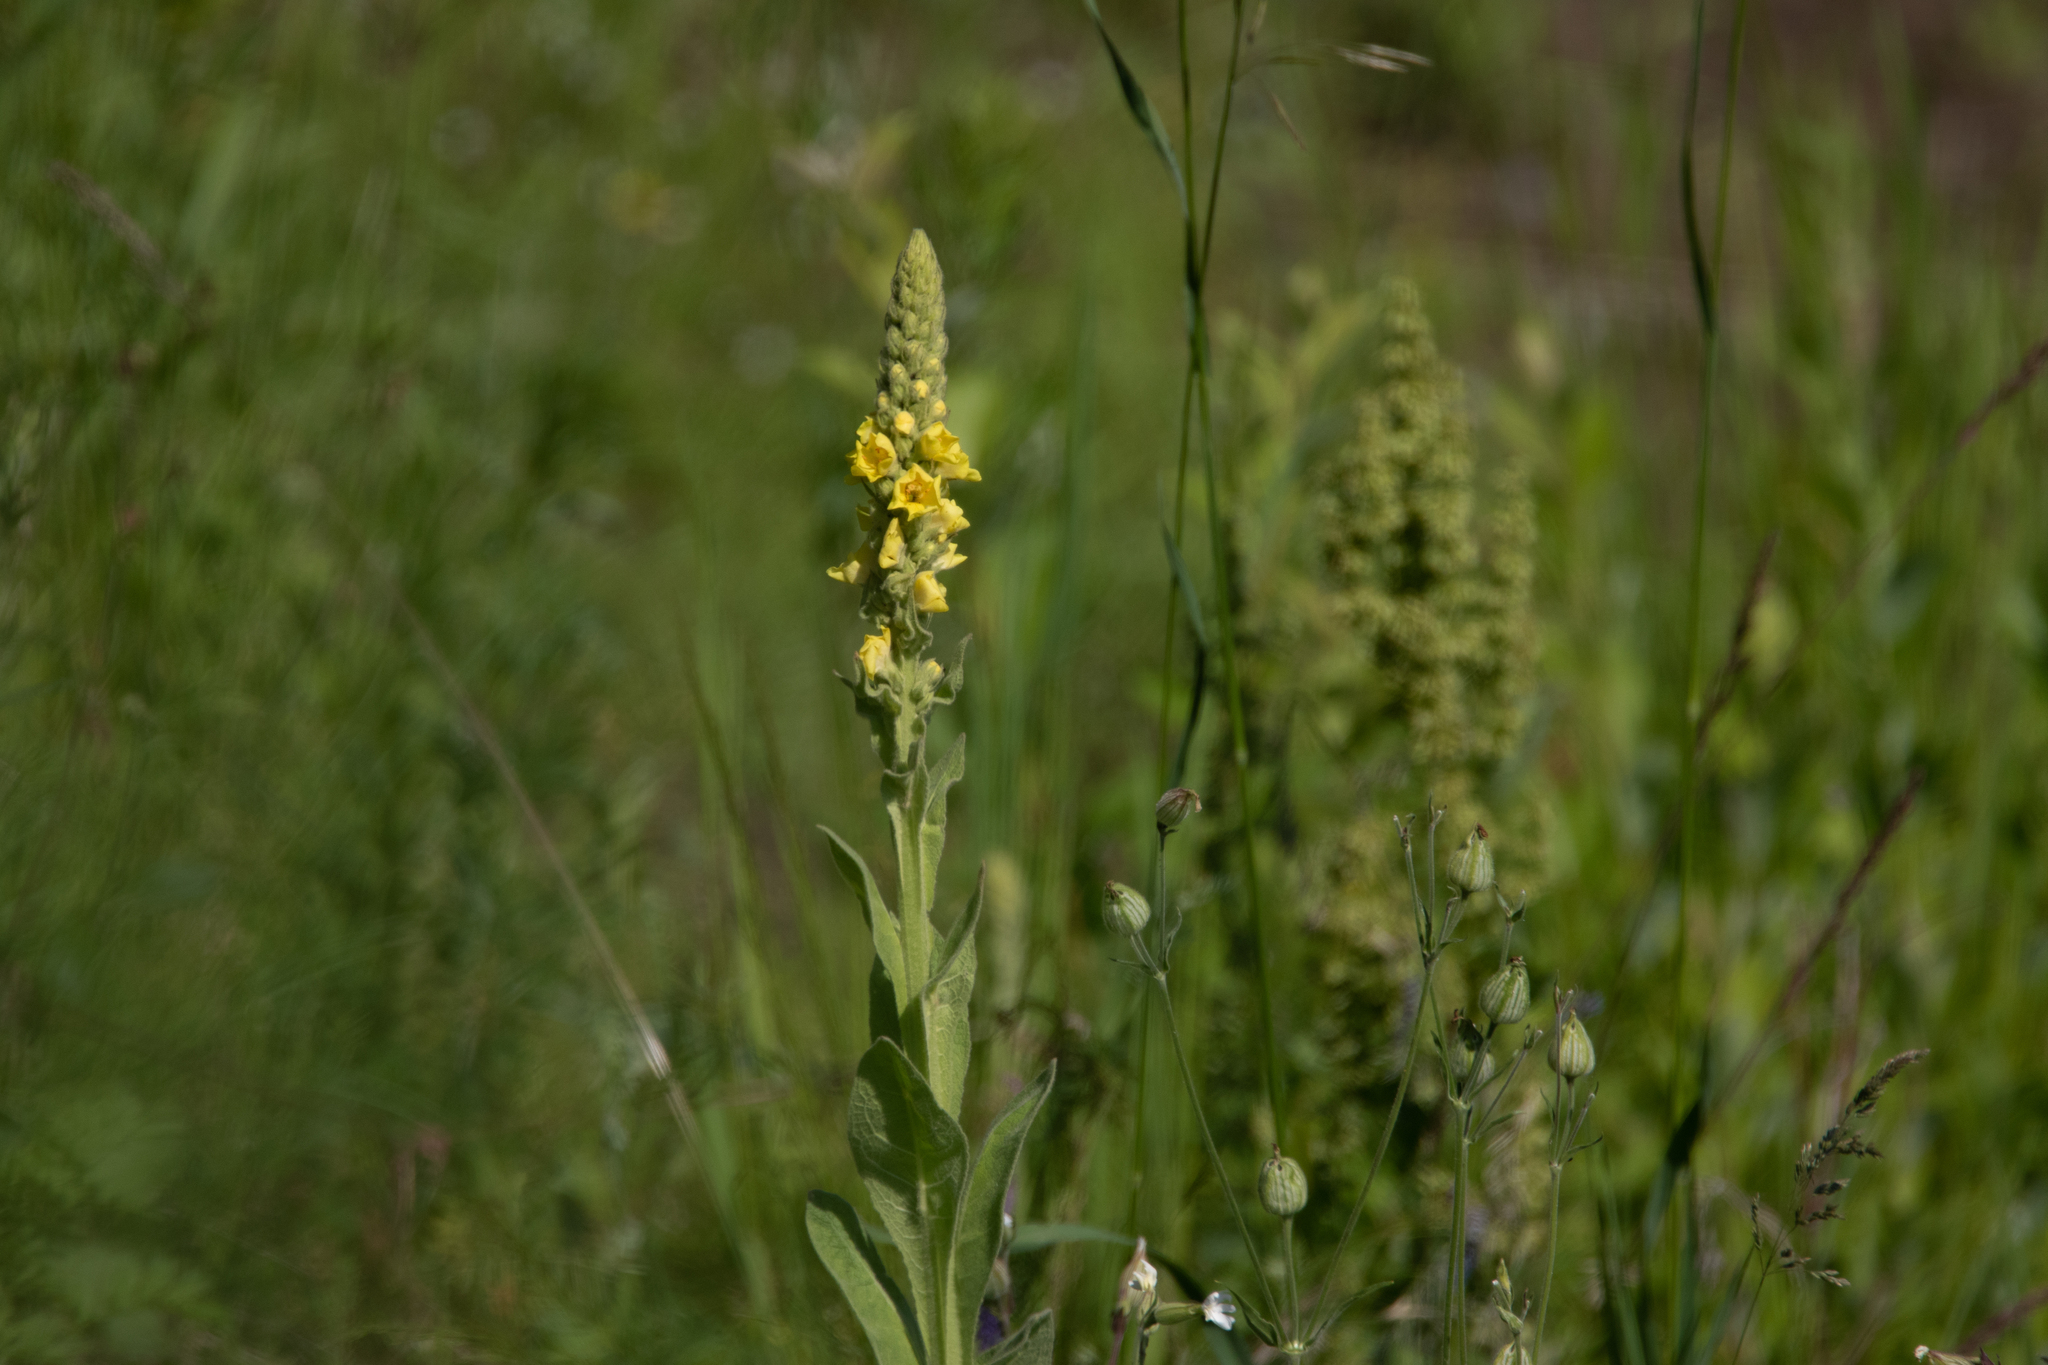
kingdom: Plantae
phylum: Tracheophyta
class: Magnoliopsida
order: Lamiales
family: Scrophulariaceae
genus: Verbascum
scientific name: Verbascum thapsus
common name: Common mullein
